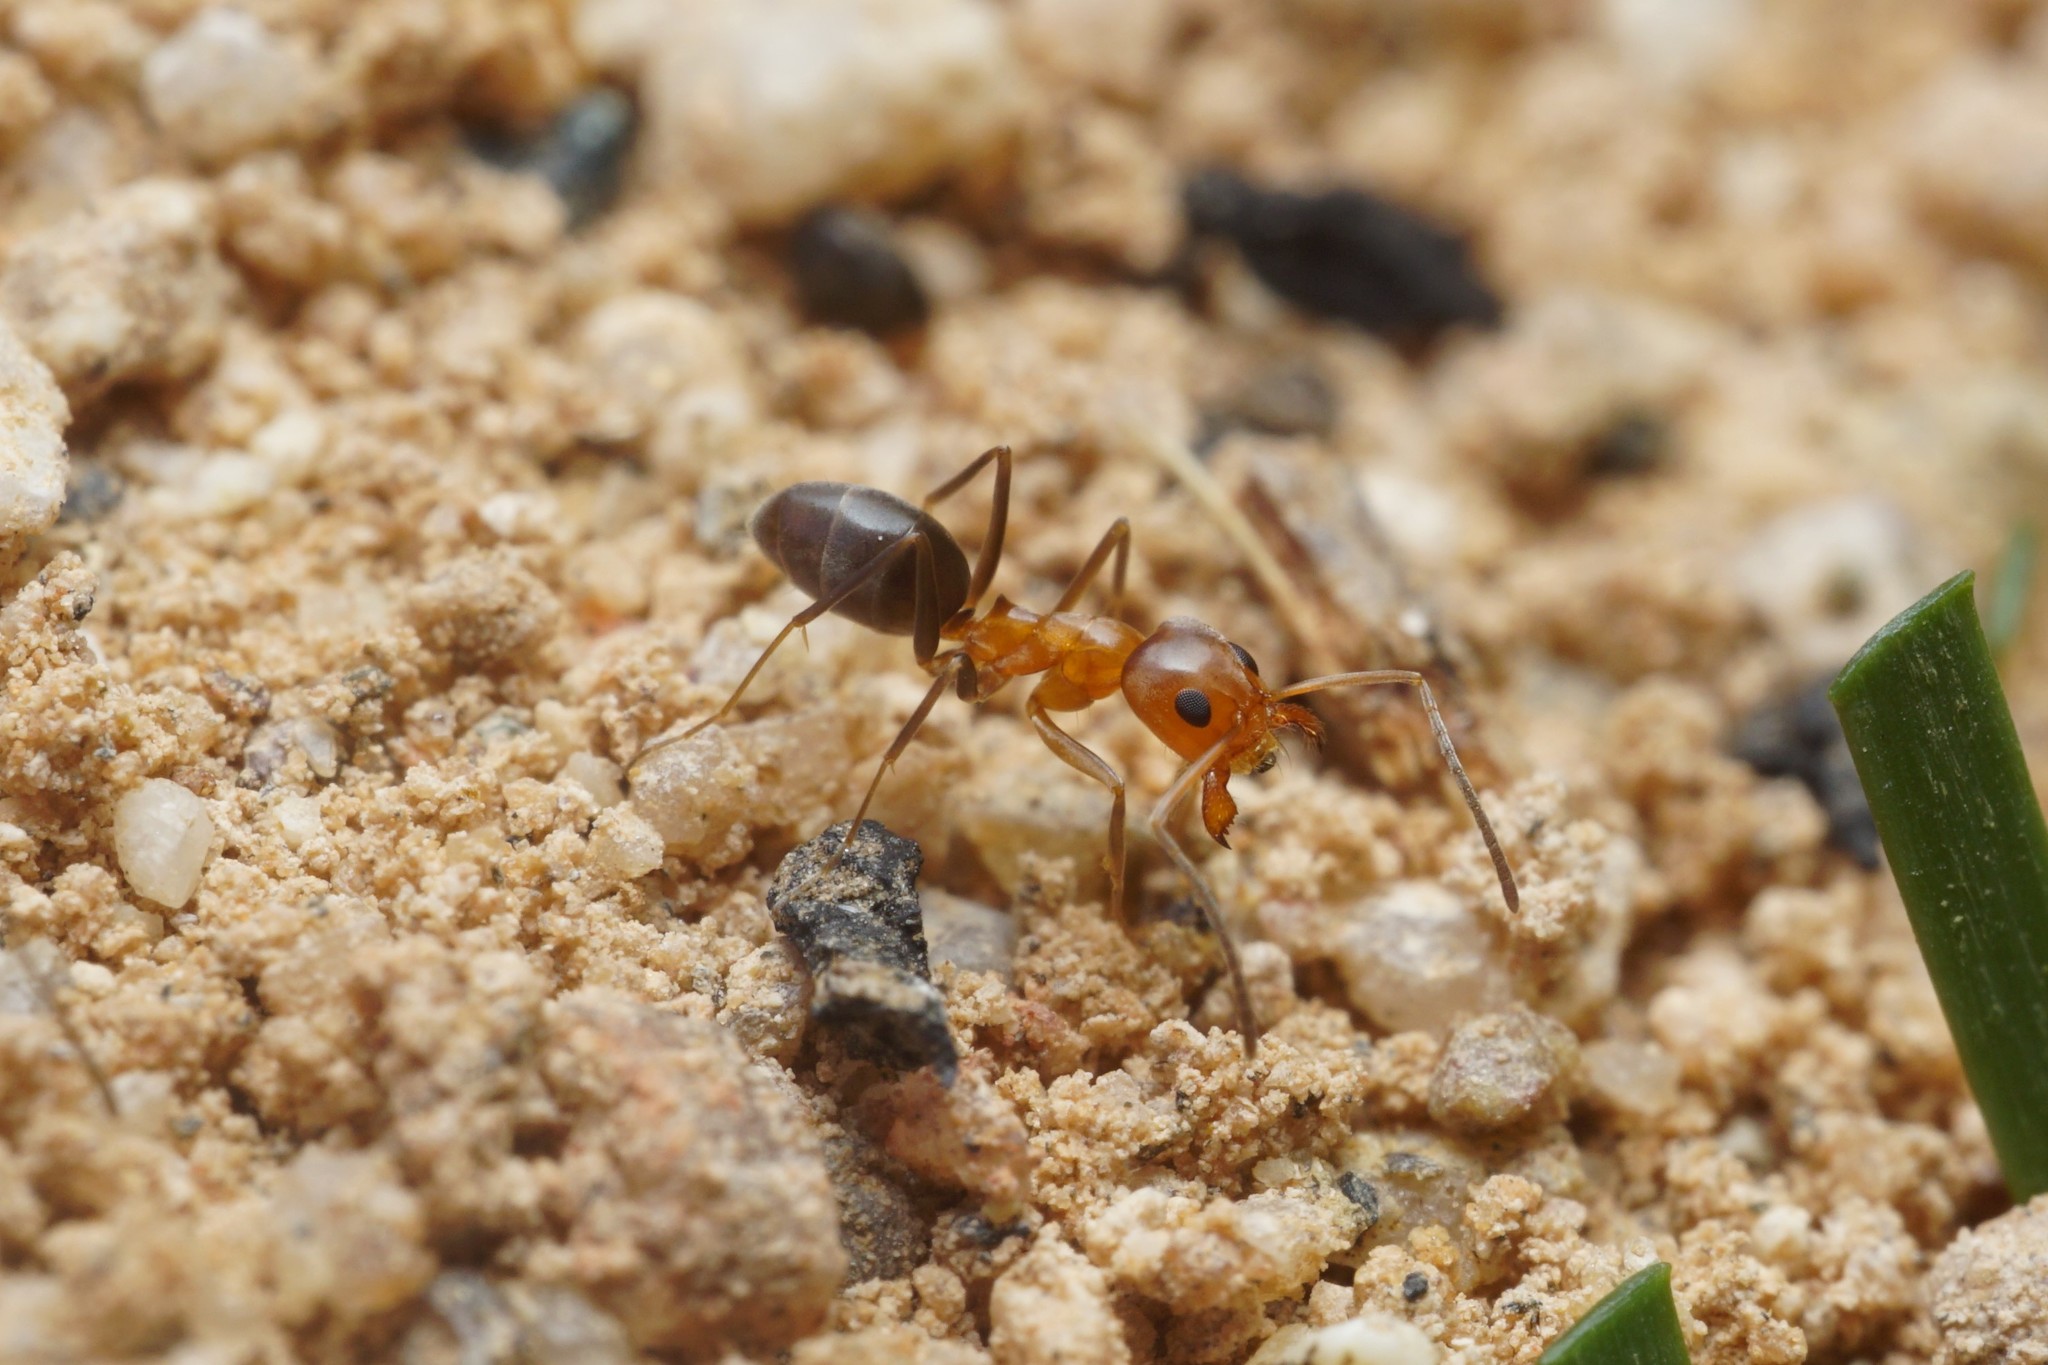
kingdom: Animalia
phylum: Arthropoda
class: Insecta
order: Hymenoptera
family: Formicidae
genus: Dorymyrmex
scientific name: Dorymyrmex bicolor
